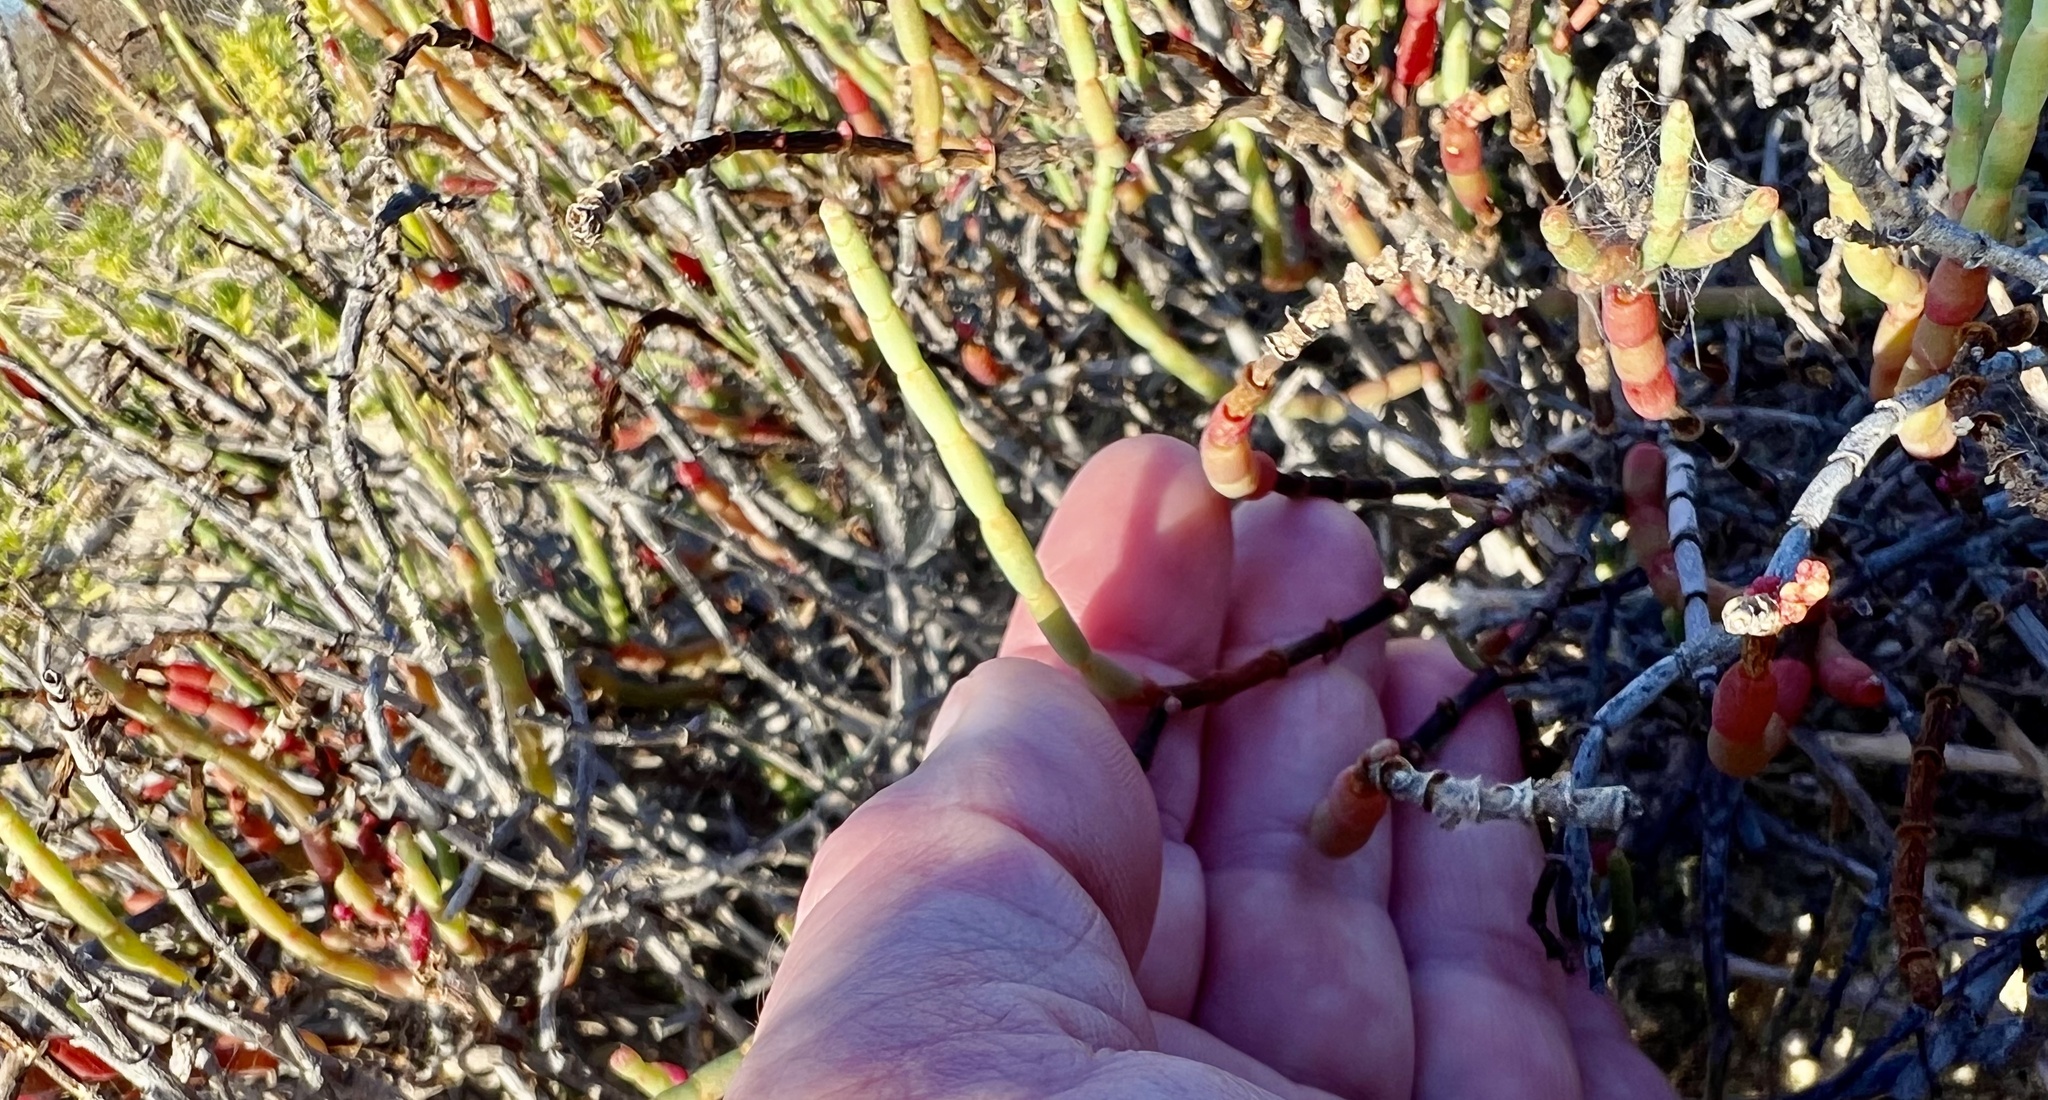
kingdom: Plantae
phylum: Tracheophyta
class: Magnoliopsida
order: Caryophyllales
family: Amaranthaceae
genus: Salicornia
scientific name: Salicornia perennis
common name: Chicken claws
